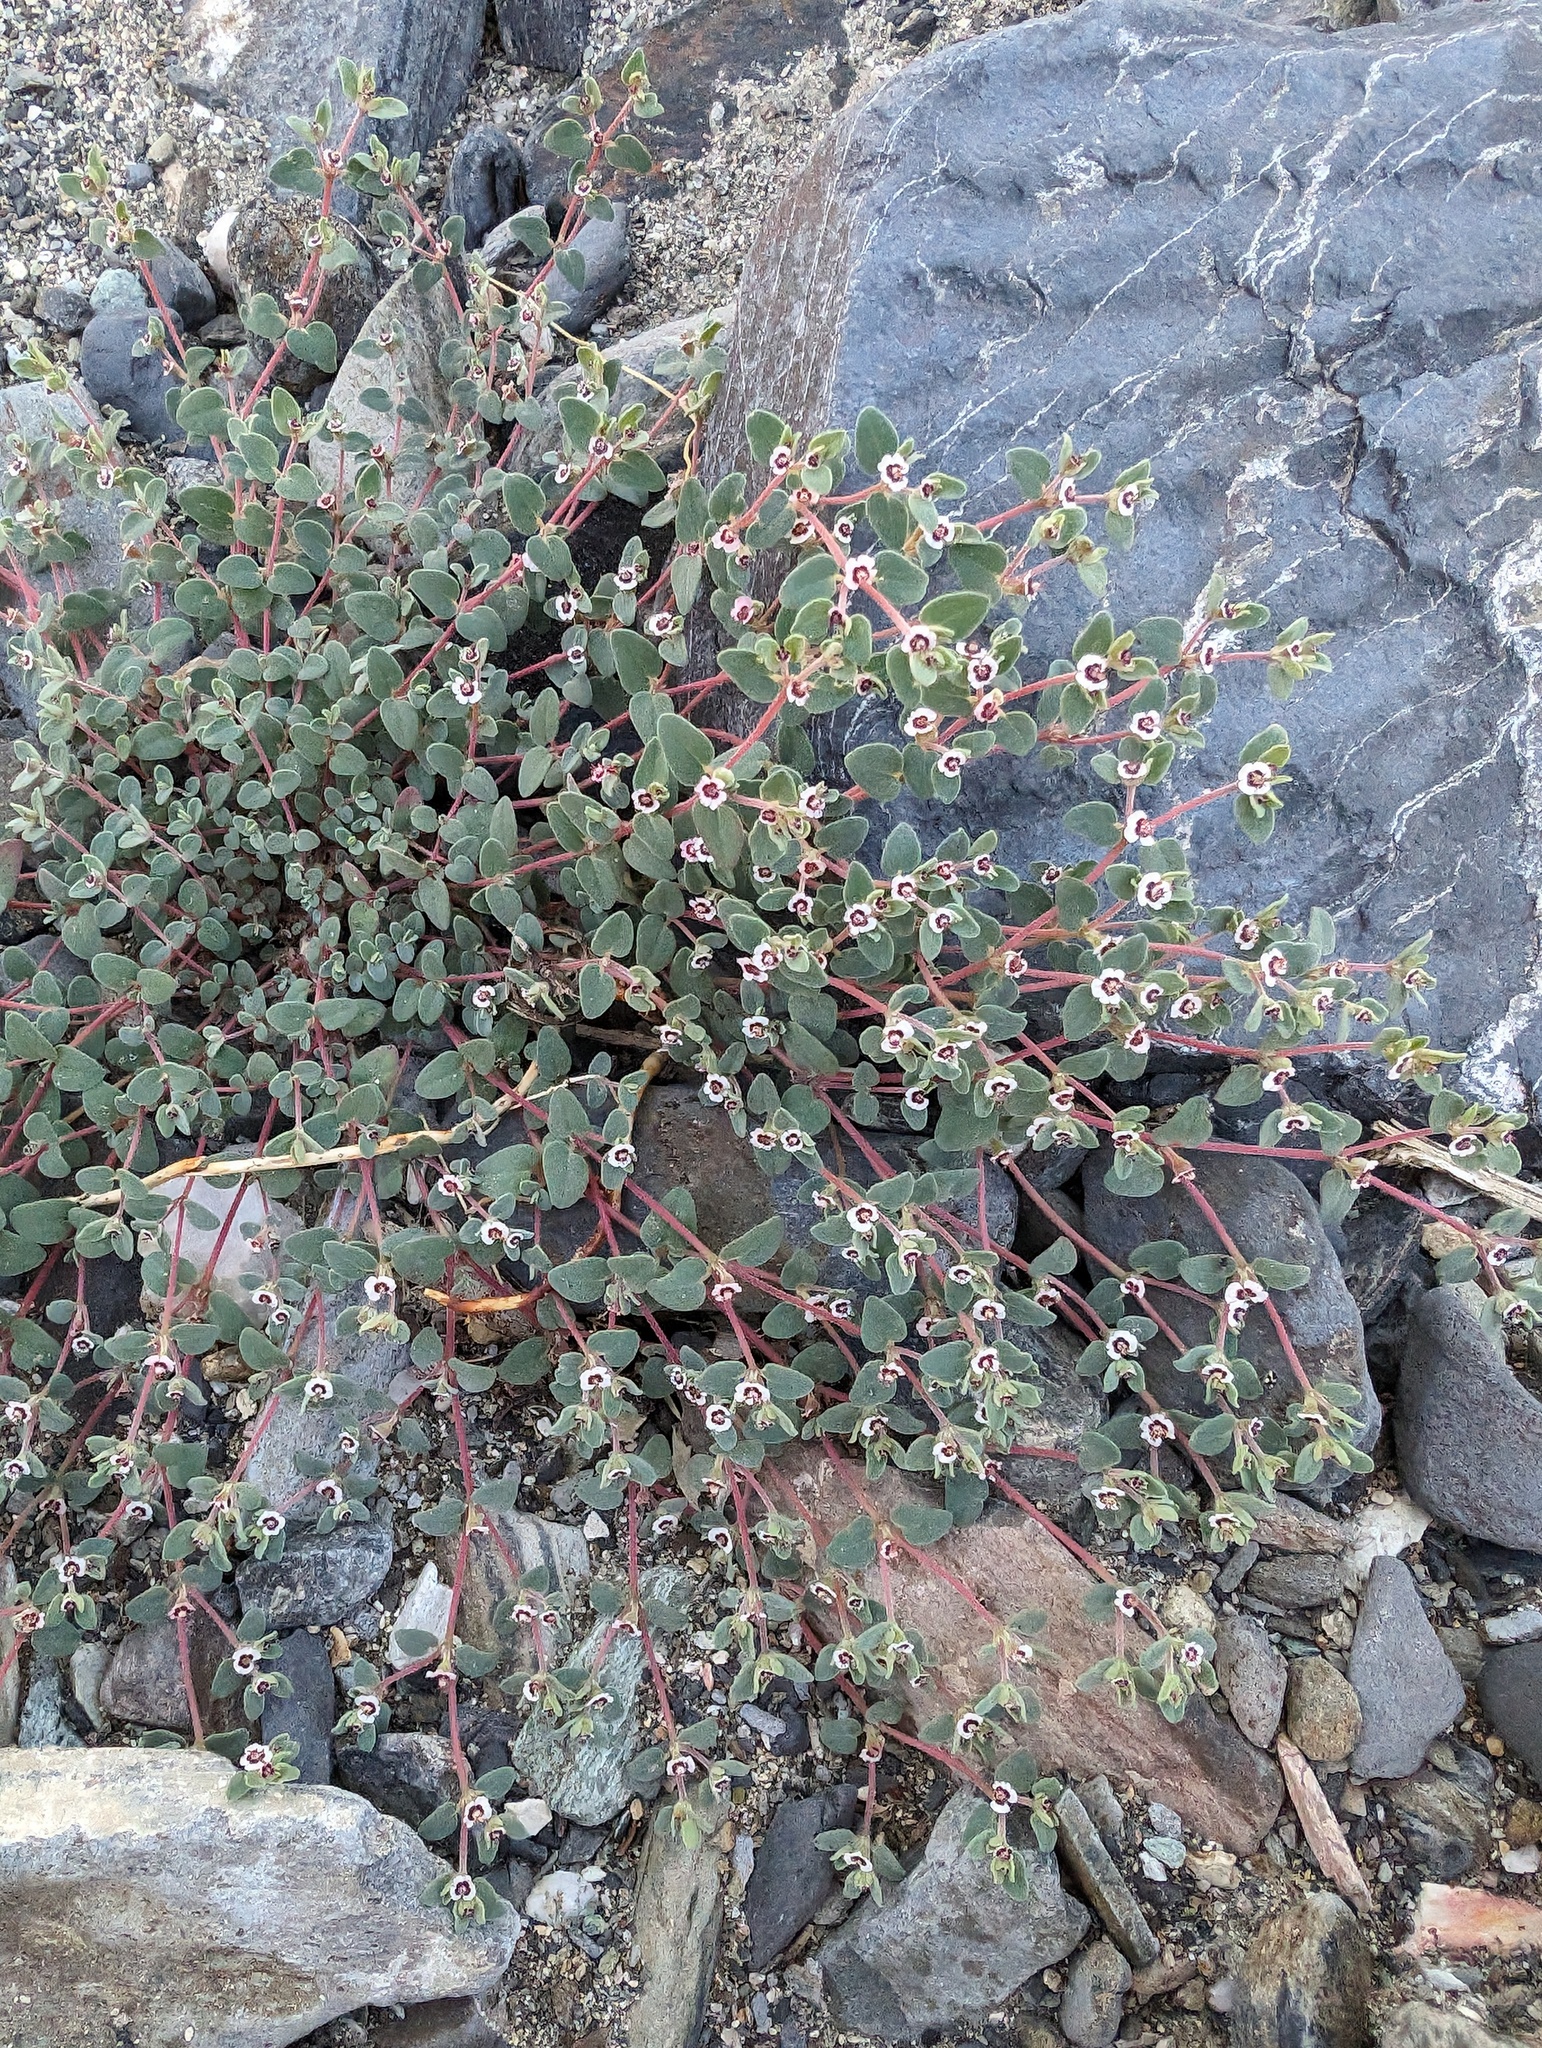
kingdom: Plantae
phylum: Tracheophyta
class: Magnoliopsida
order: Malpighiales
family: Euphorbiaceae
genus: Euphorbia
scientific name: Euphorbia melanadenia
